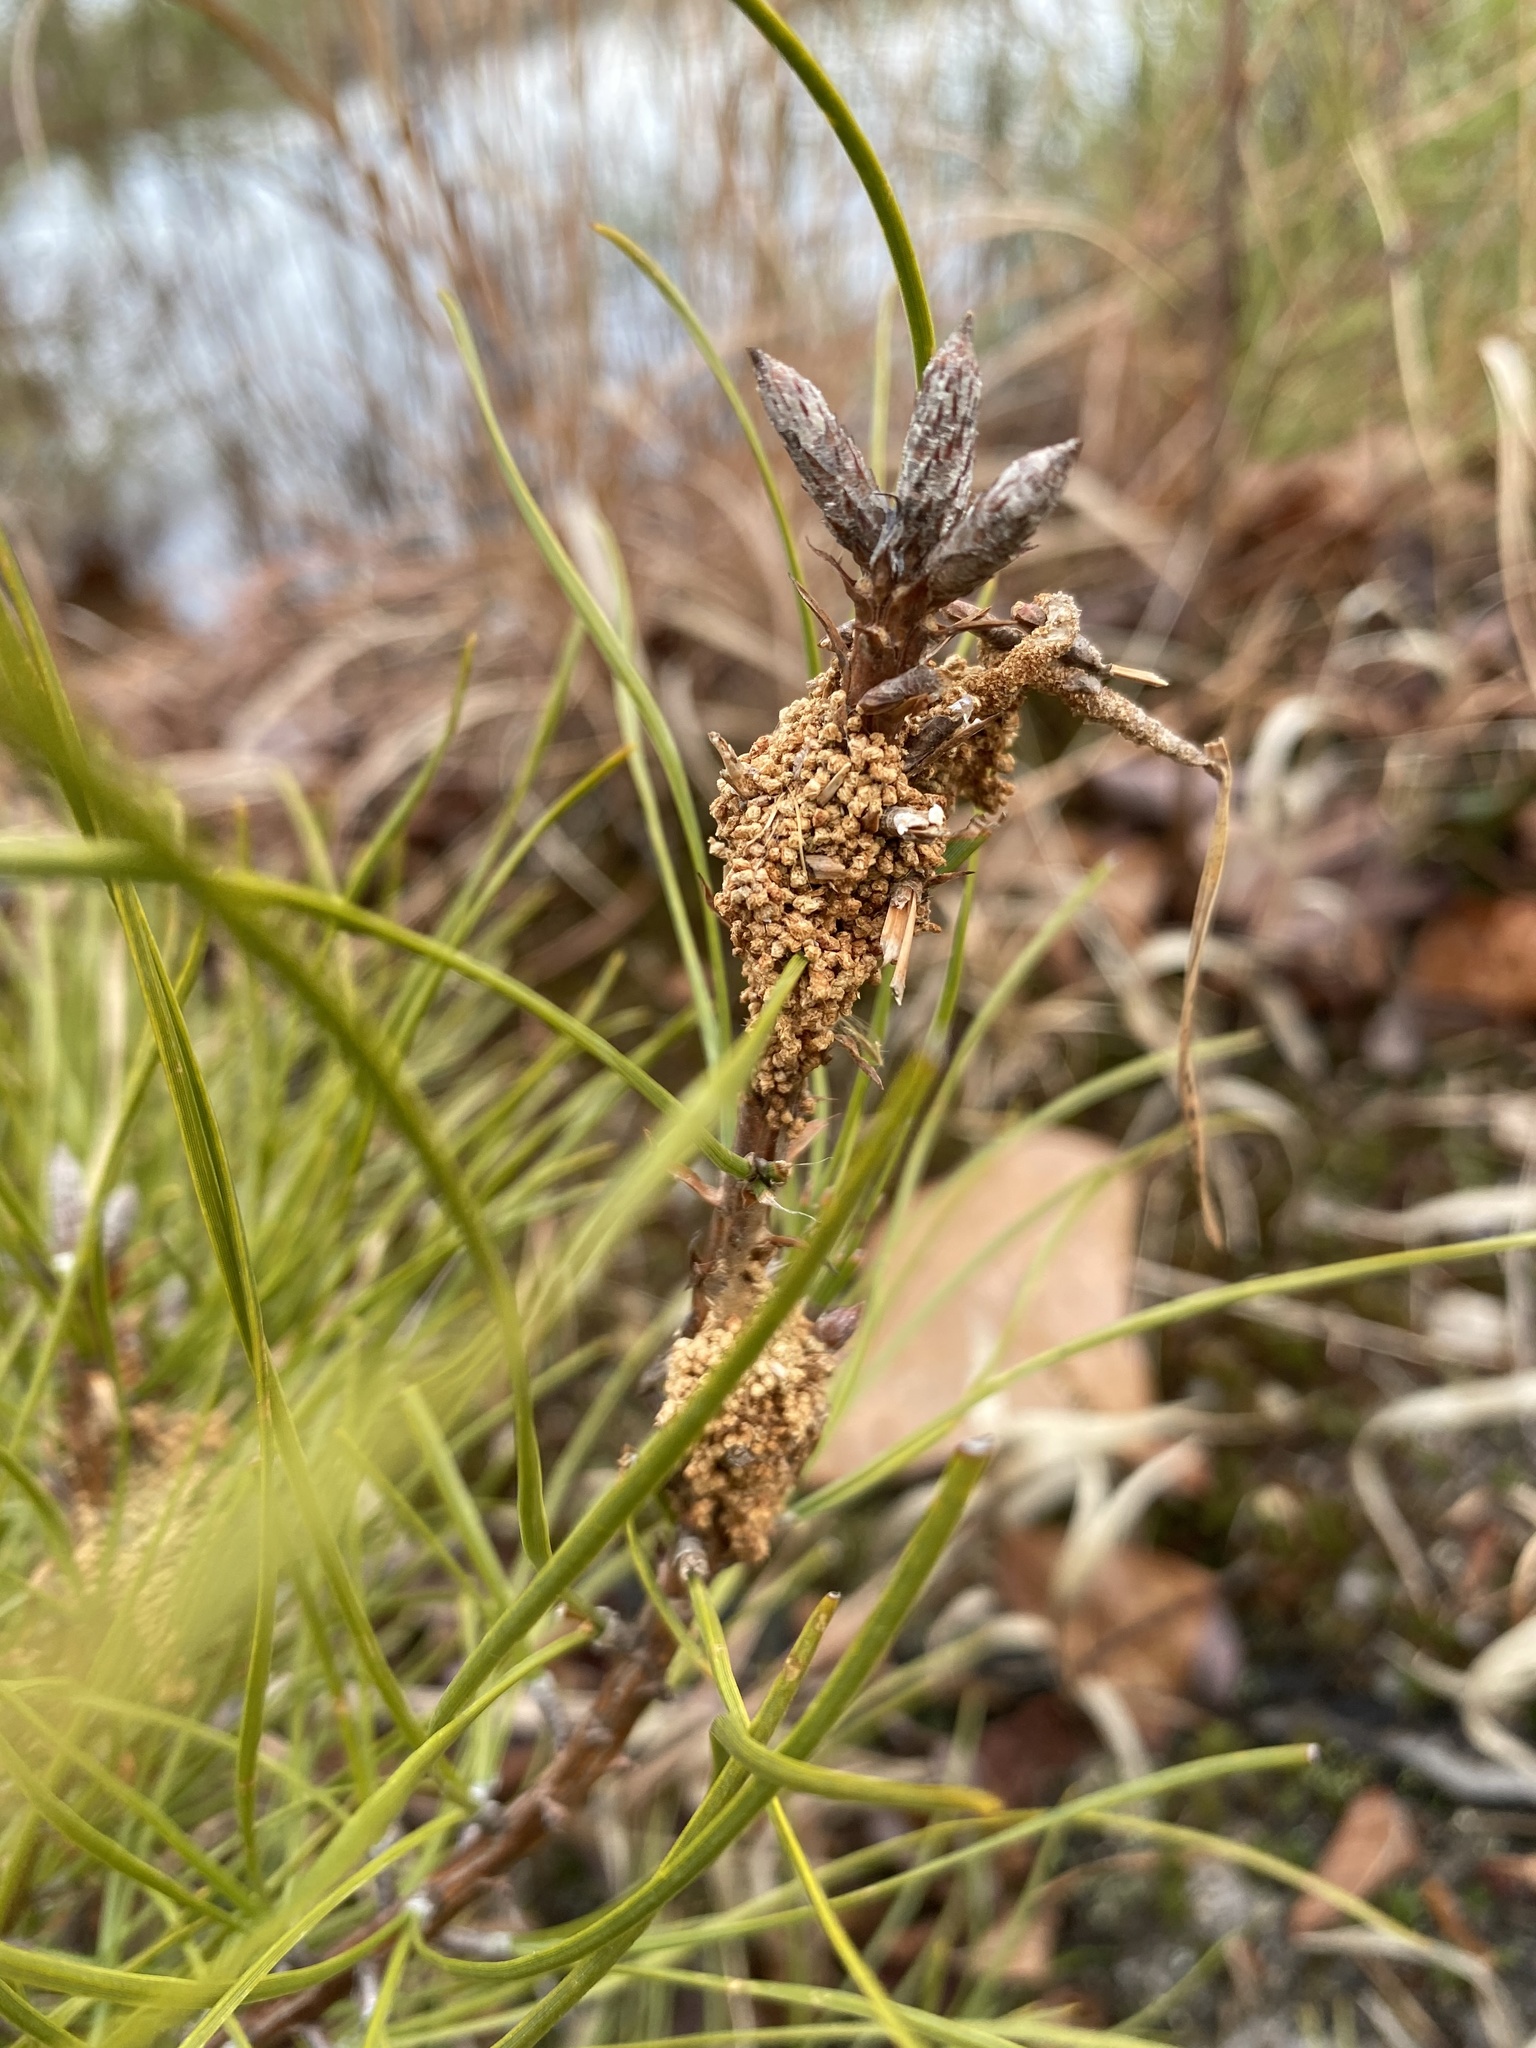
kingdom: Animalia
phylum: Arthropoda
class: Insecta
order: Lepidoptera
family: Pyralidae
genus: Pococera
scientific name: Pococera robustella
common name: Pine webworm moth
